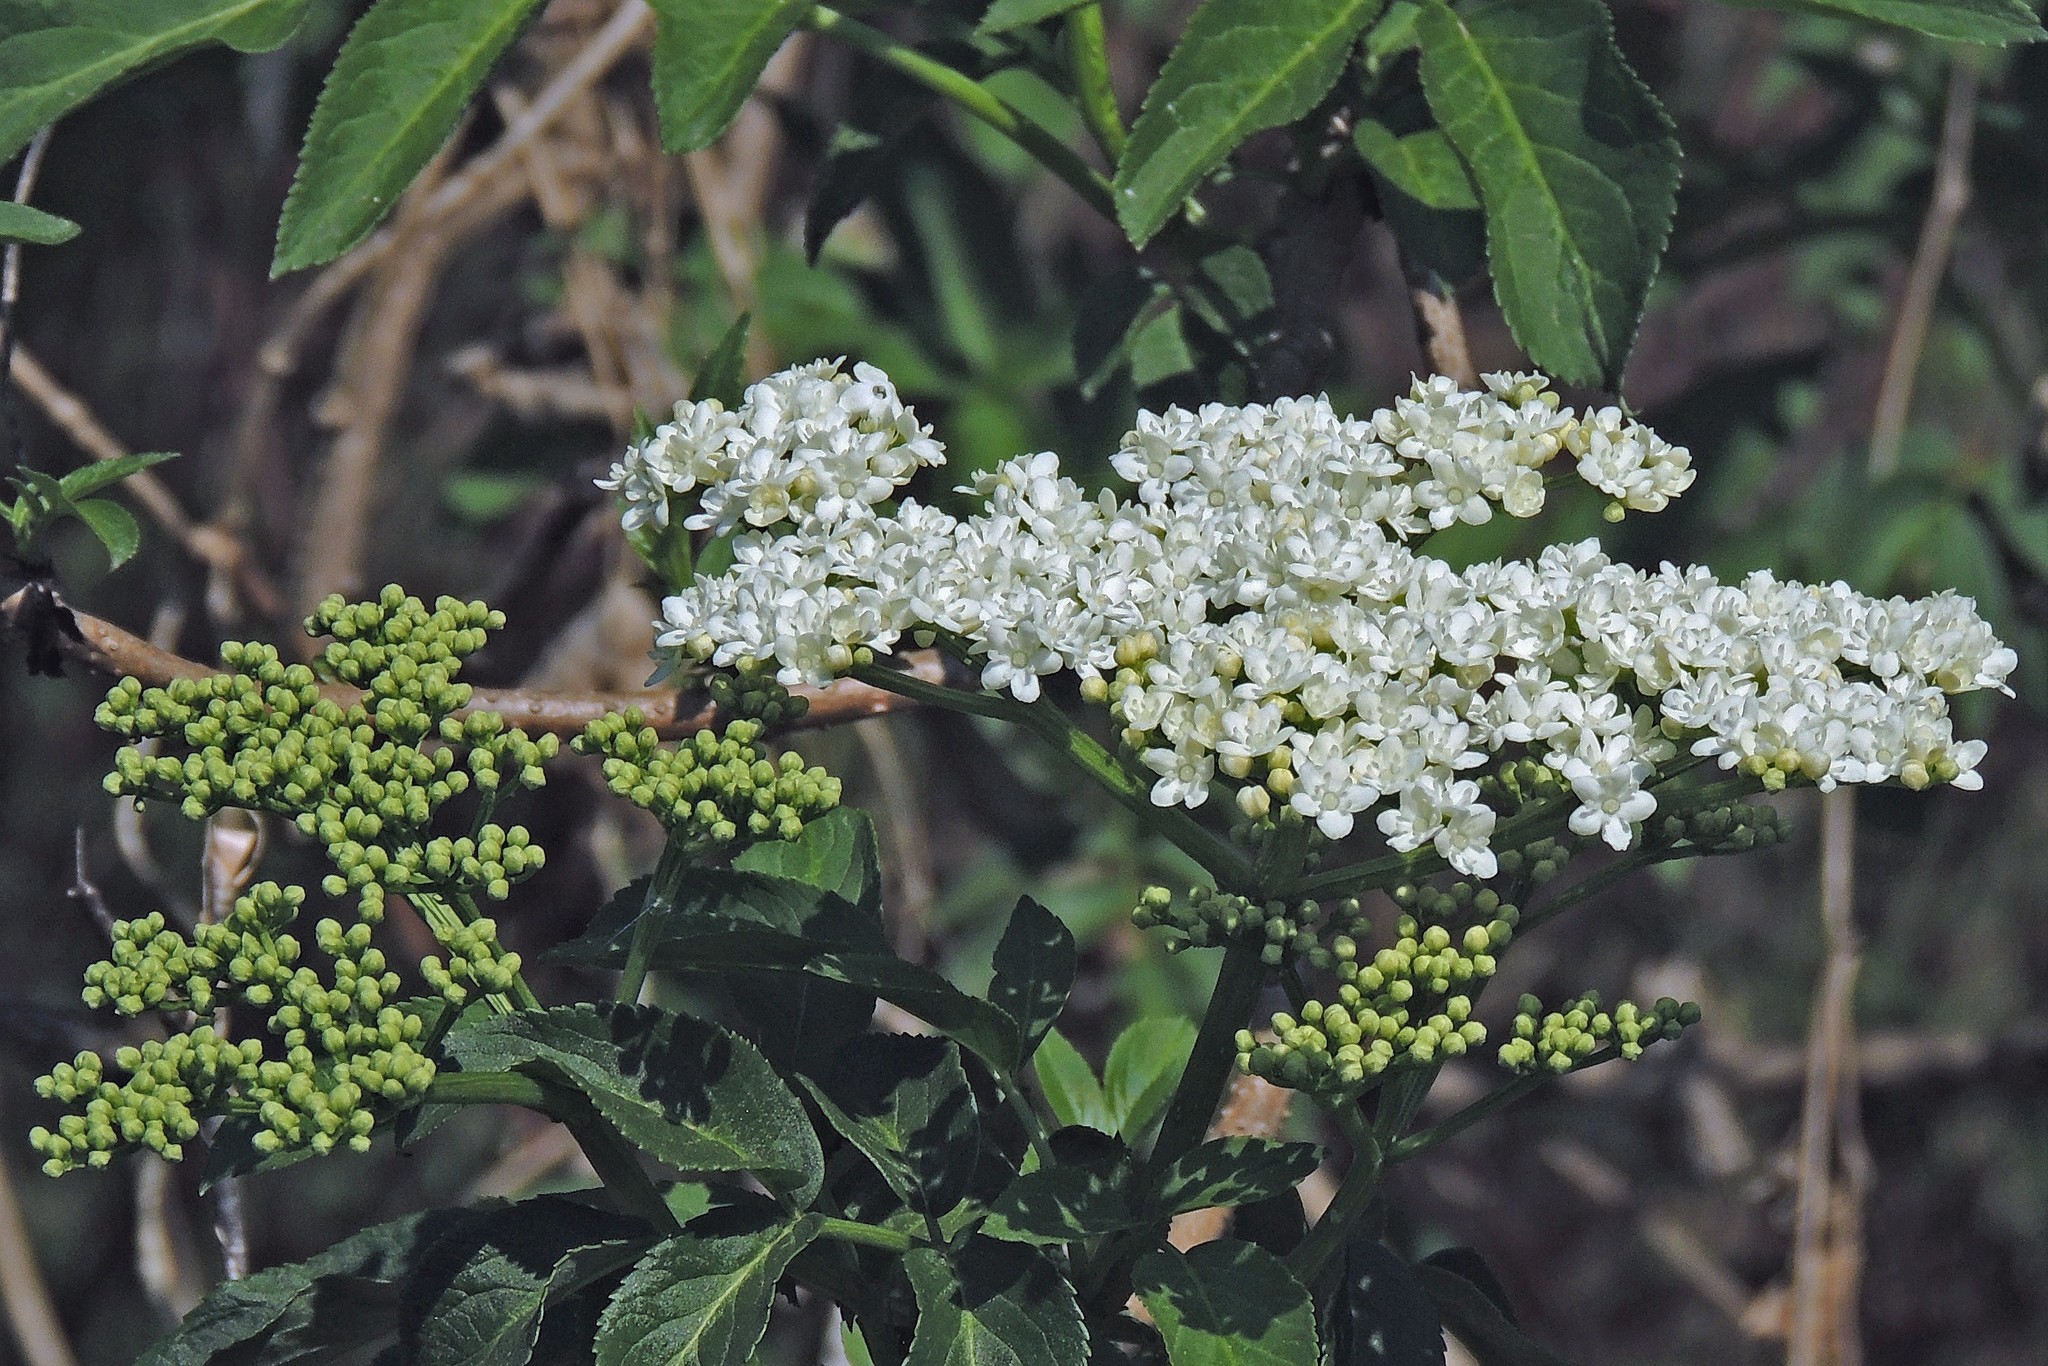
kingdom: Plantae
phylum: Tracheophyta
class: Magnoliopsida
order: Dipsacales
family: Viburnaceae
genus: Sambucus
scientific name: Sambucus peruviana
